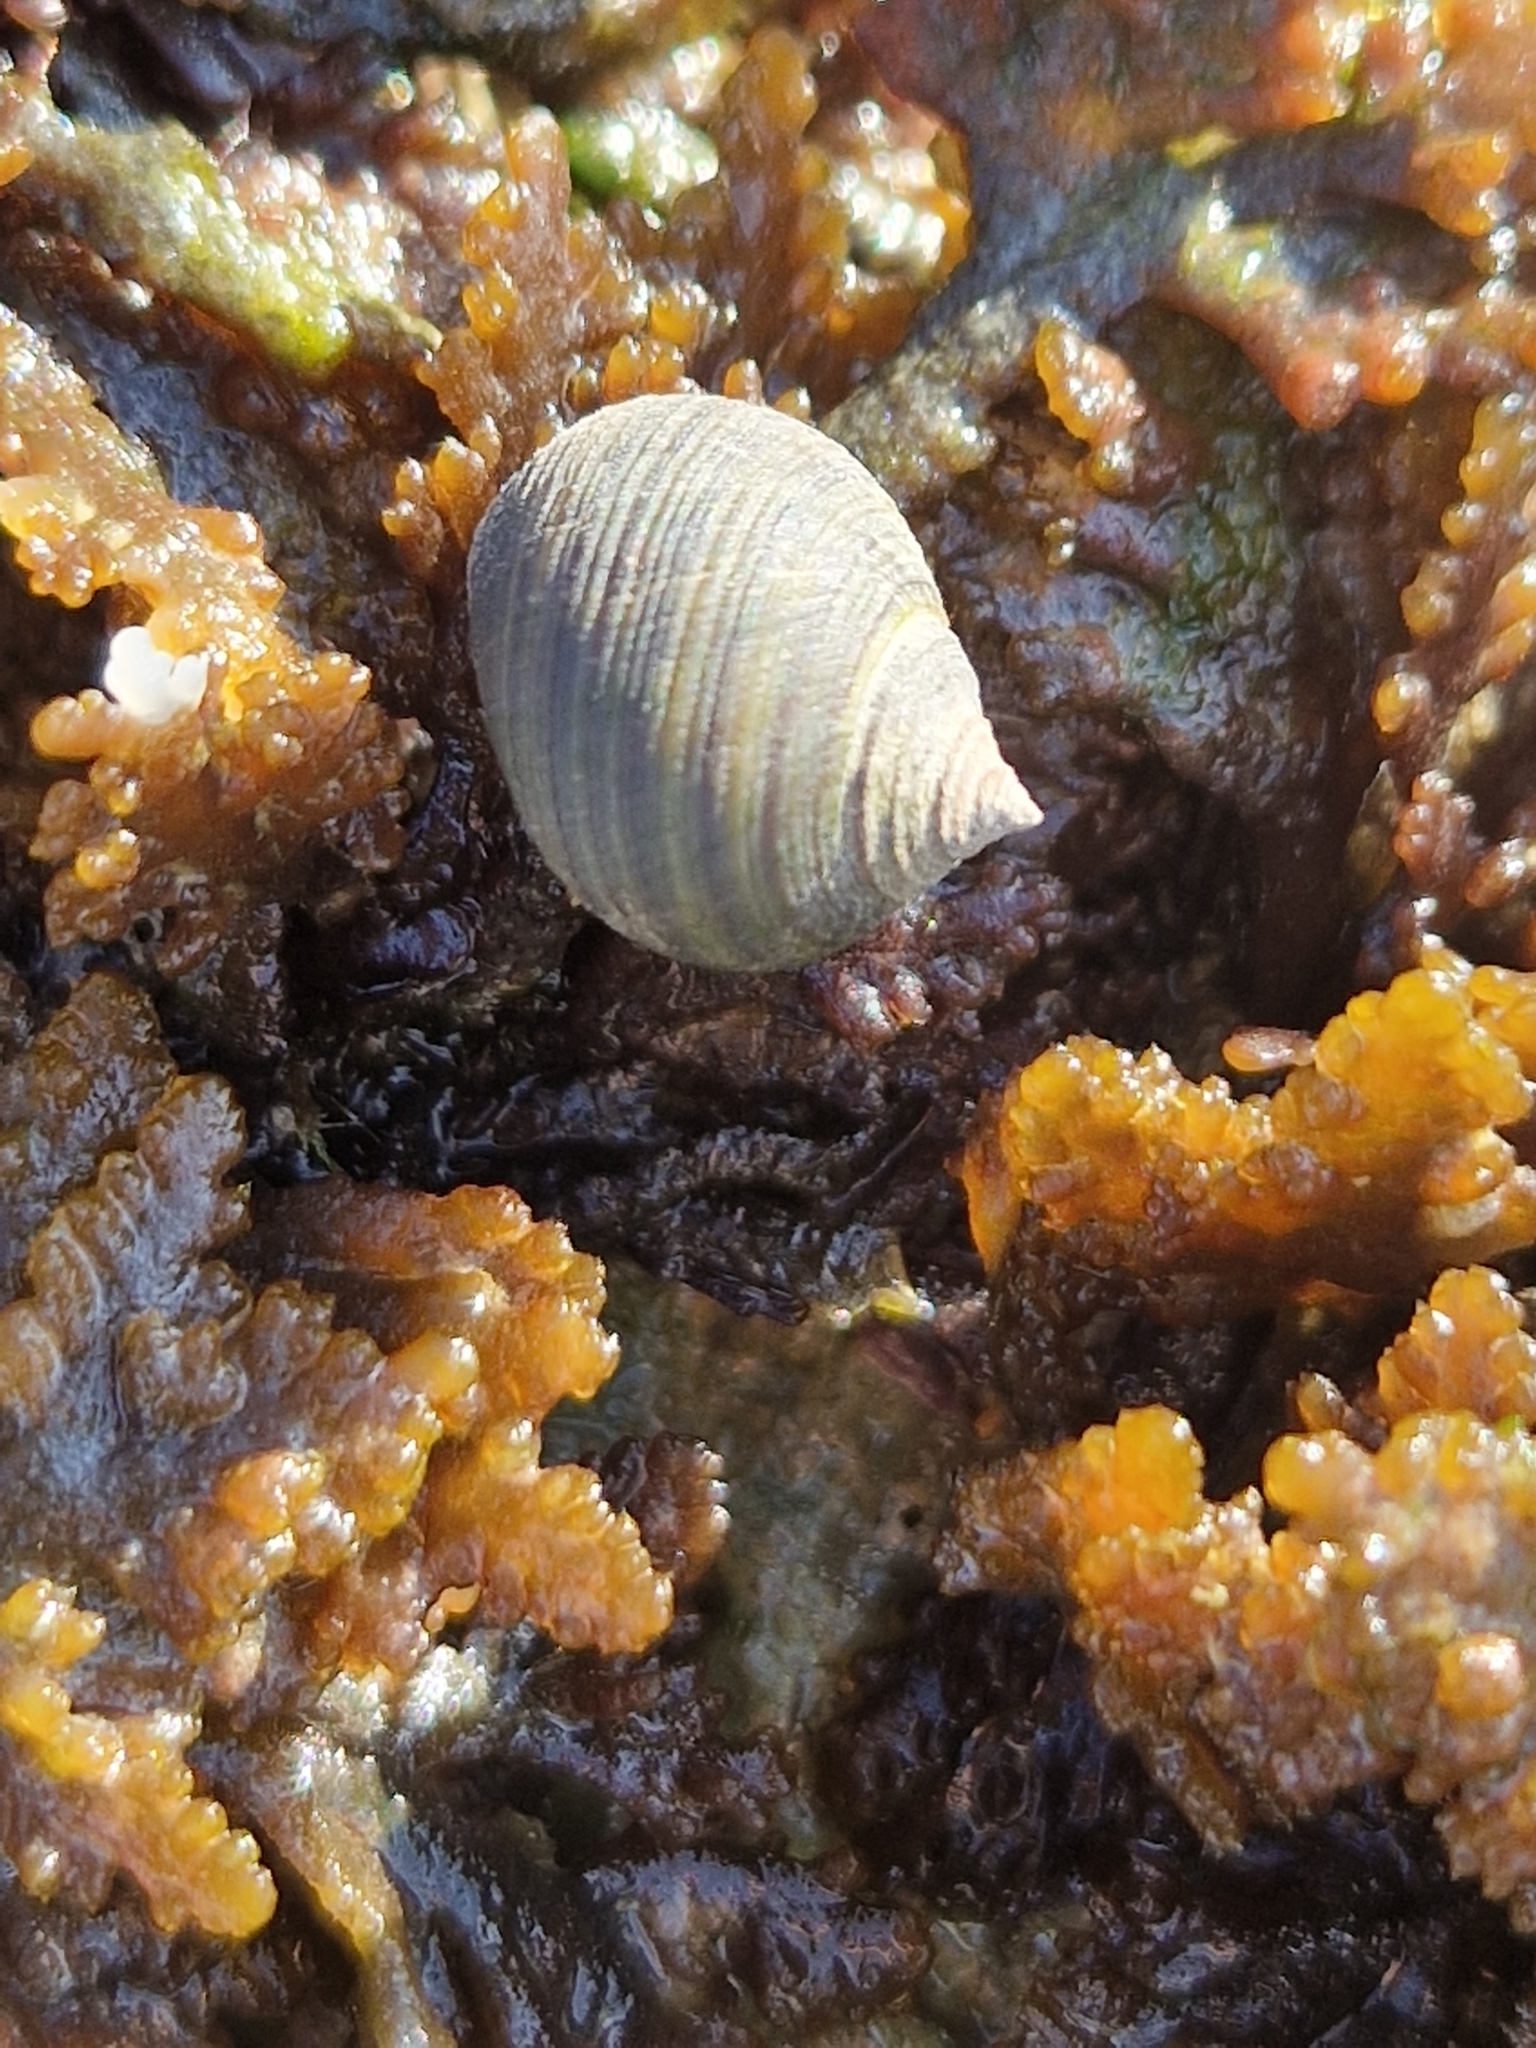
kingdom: Animalia
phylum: Mollusca
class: Gastropoda
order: Littorinimorpha
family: Littorinidae
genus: Littorina
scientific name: Littorina littorea
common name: Common periwinkle
